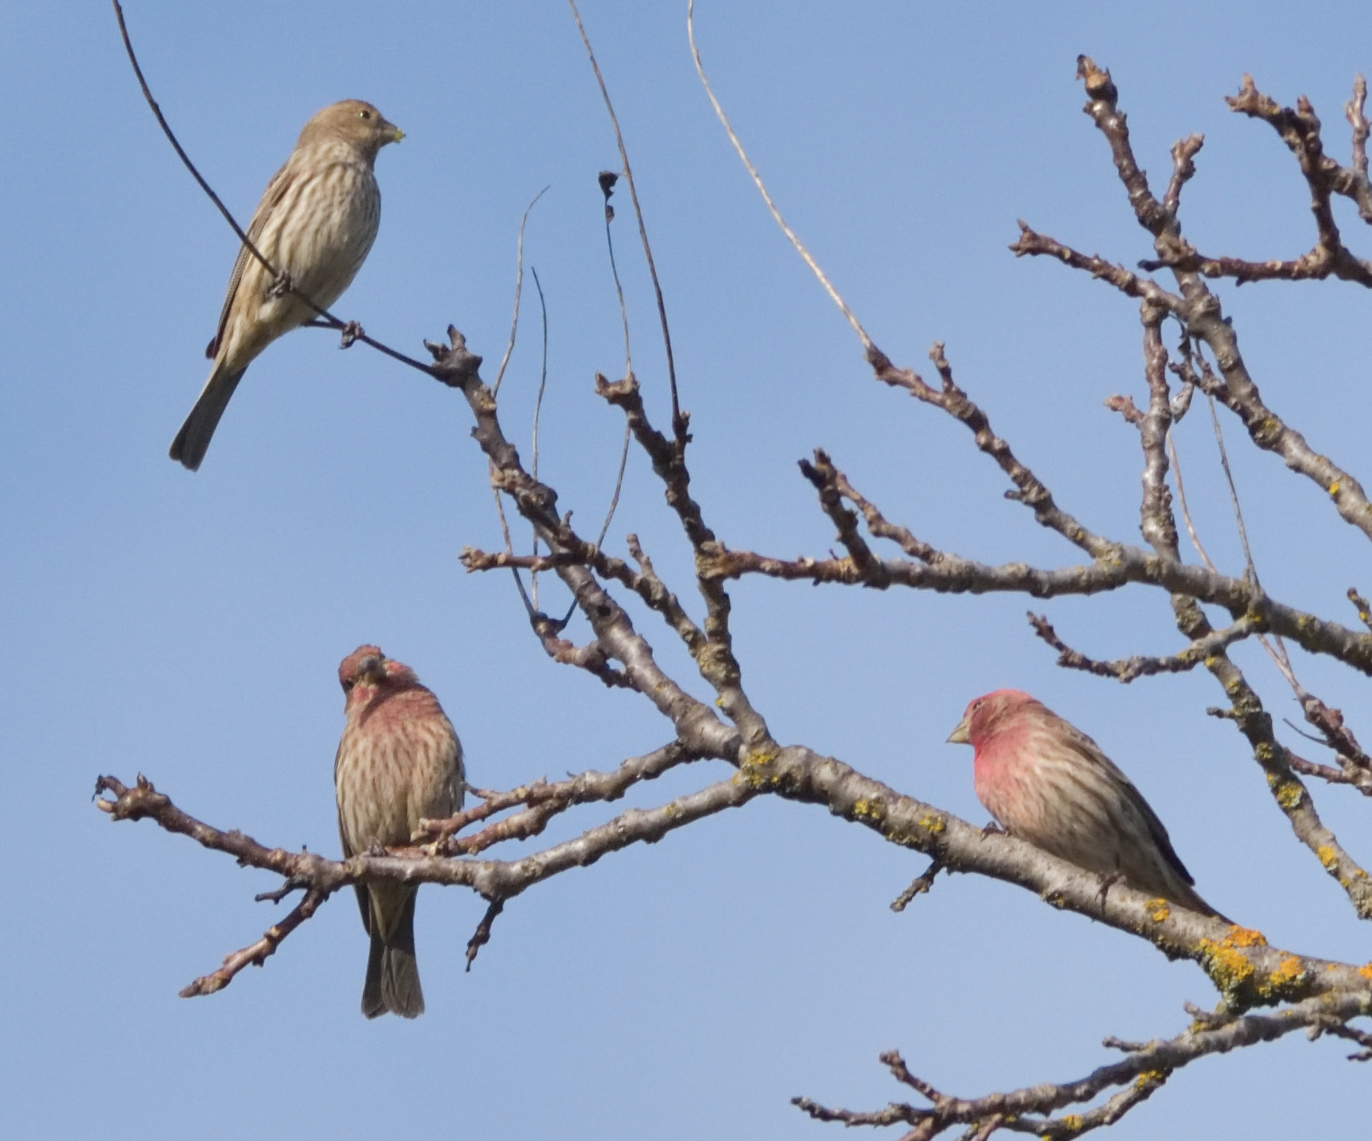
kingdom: Animalia
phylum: Chordata
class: Aves
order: Passeriformes
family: Fringillidae
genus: Haemorhous
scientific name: Haemorhous mexicanus
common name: House finch
